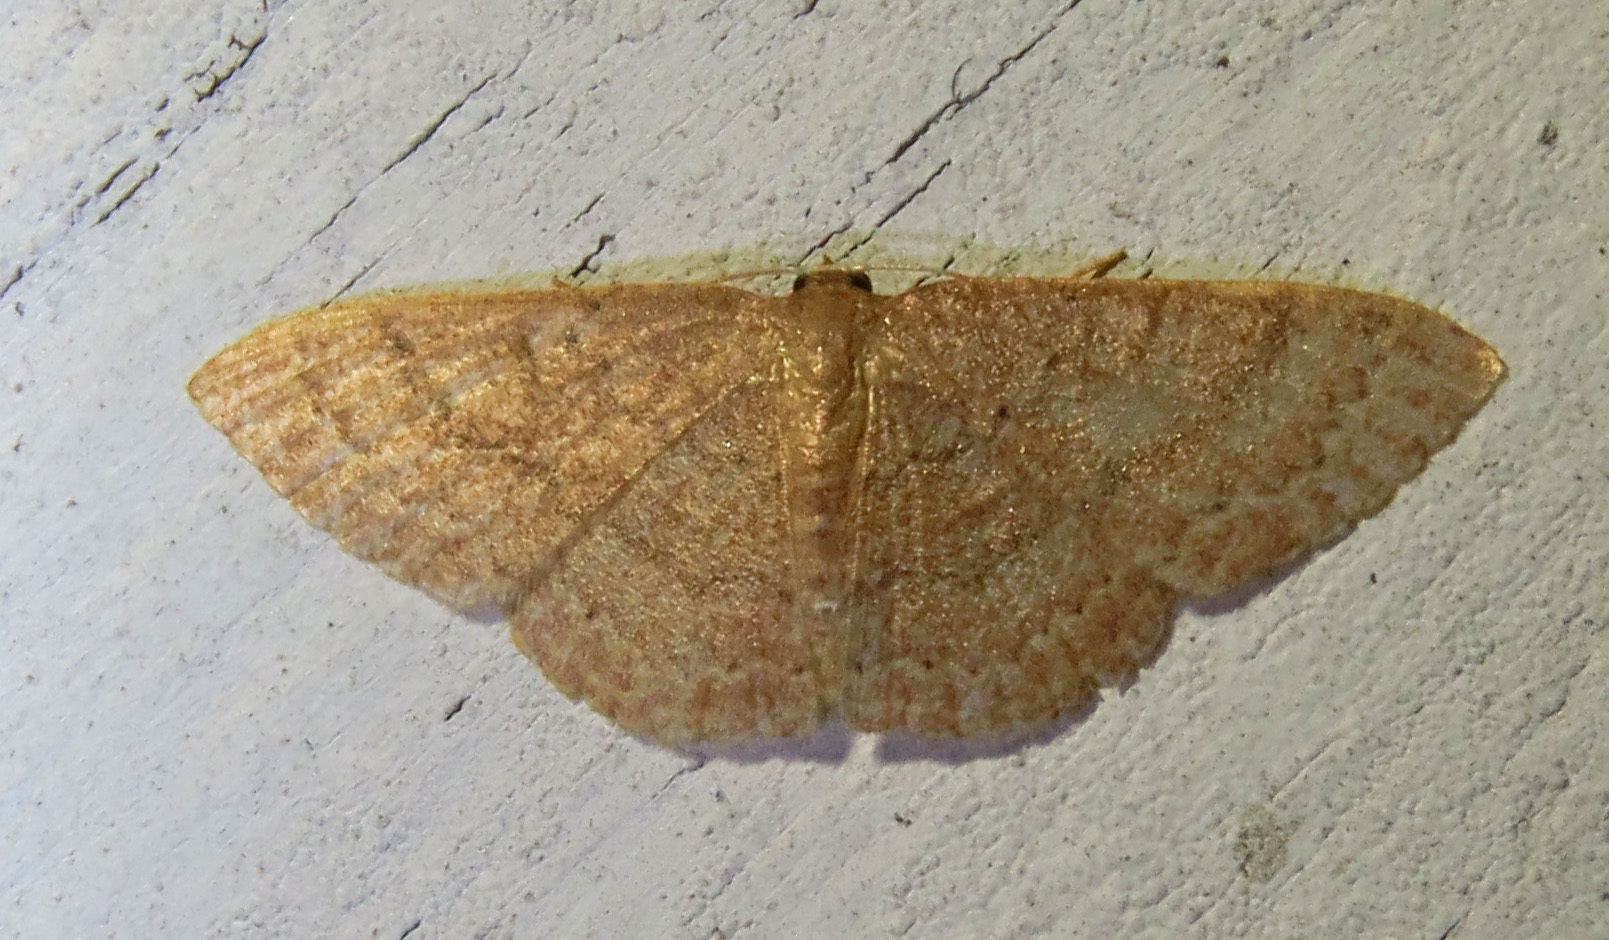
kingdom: Animalia
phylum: Arthropoda
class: Insecta
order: Lepidoptera
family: Geometridae
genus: Pleuroprucha
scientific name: Pleuroprucha insulsaria
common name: Common tan wave
